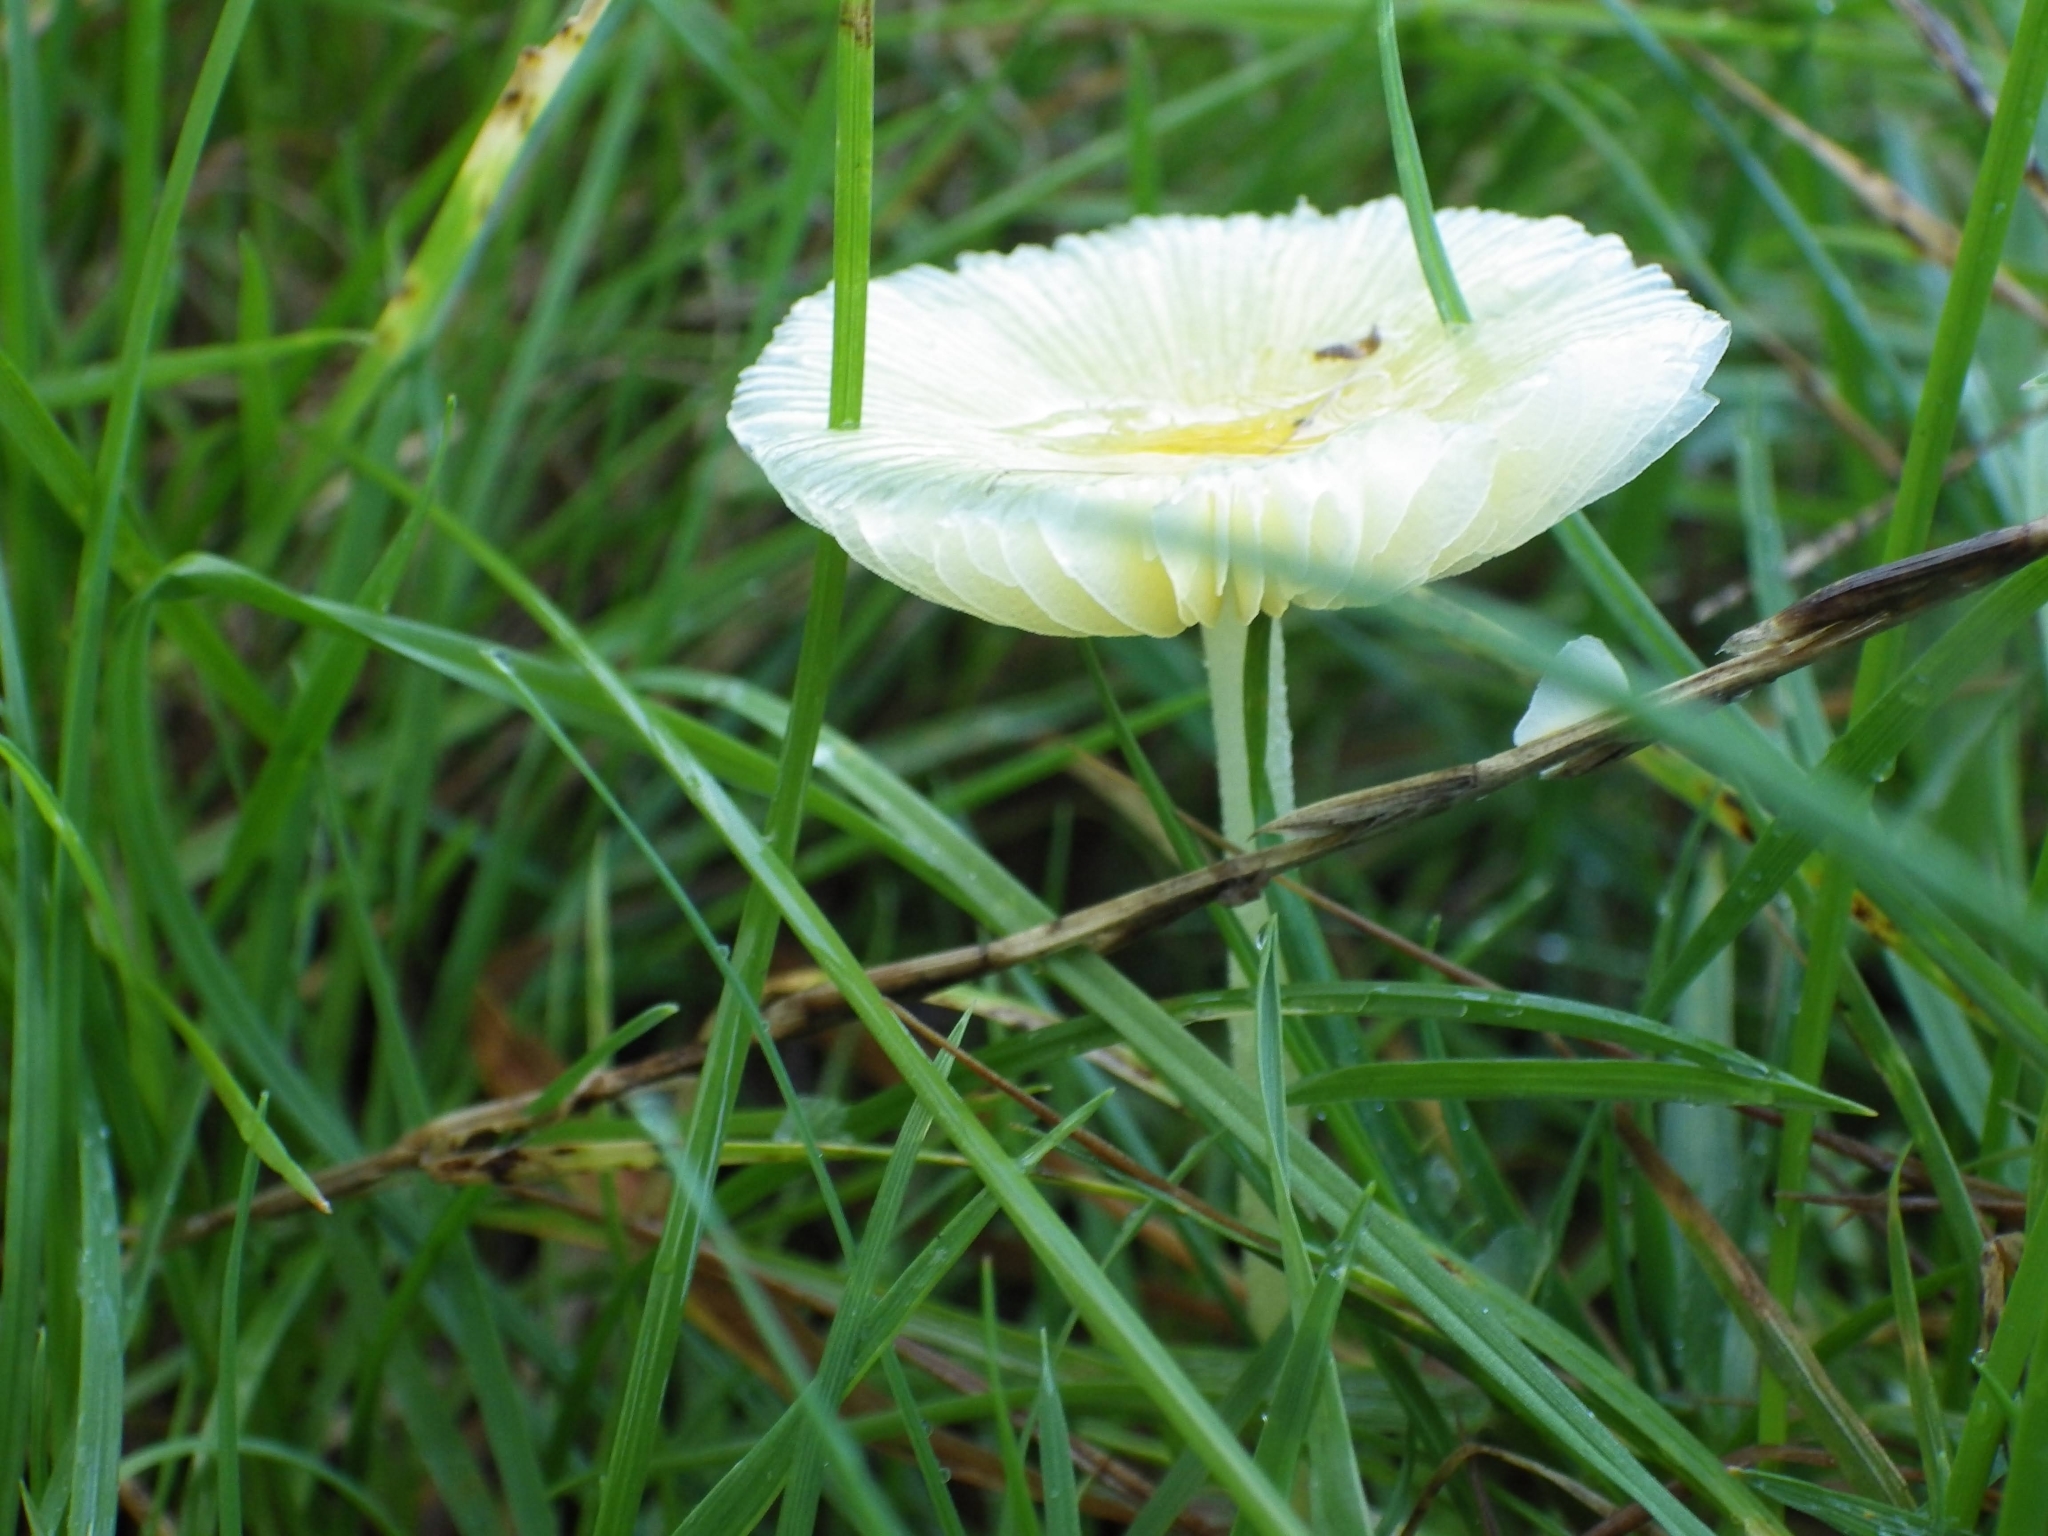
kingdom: Fungi
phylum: Basidiomycota
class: Agaricomycetes
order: Agaricales
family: Bolbitiaceae
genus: Bolbitius
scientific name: Bolbitius titubans
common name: Yellow fieldcap
